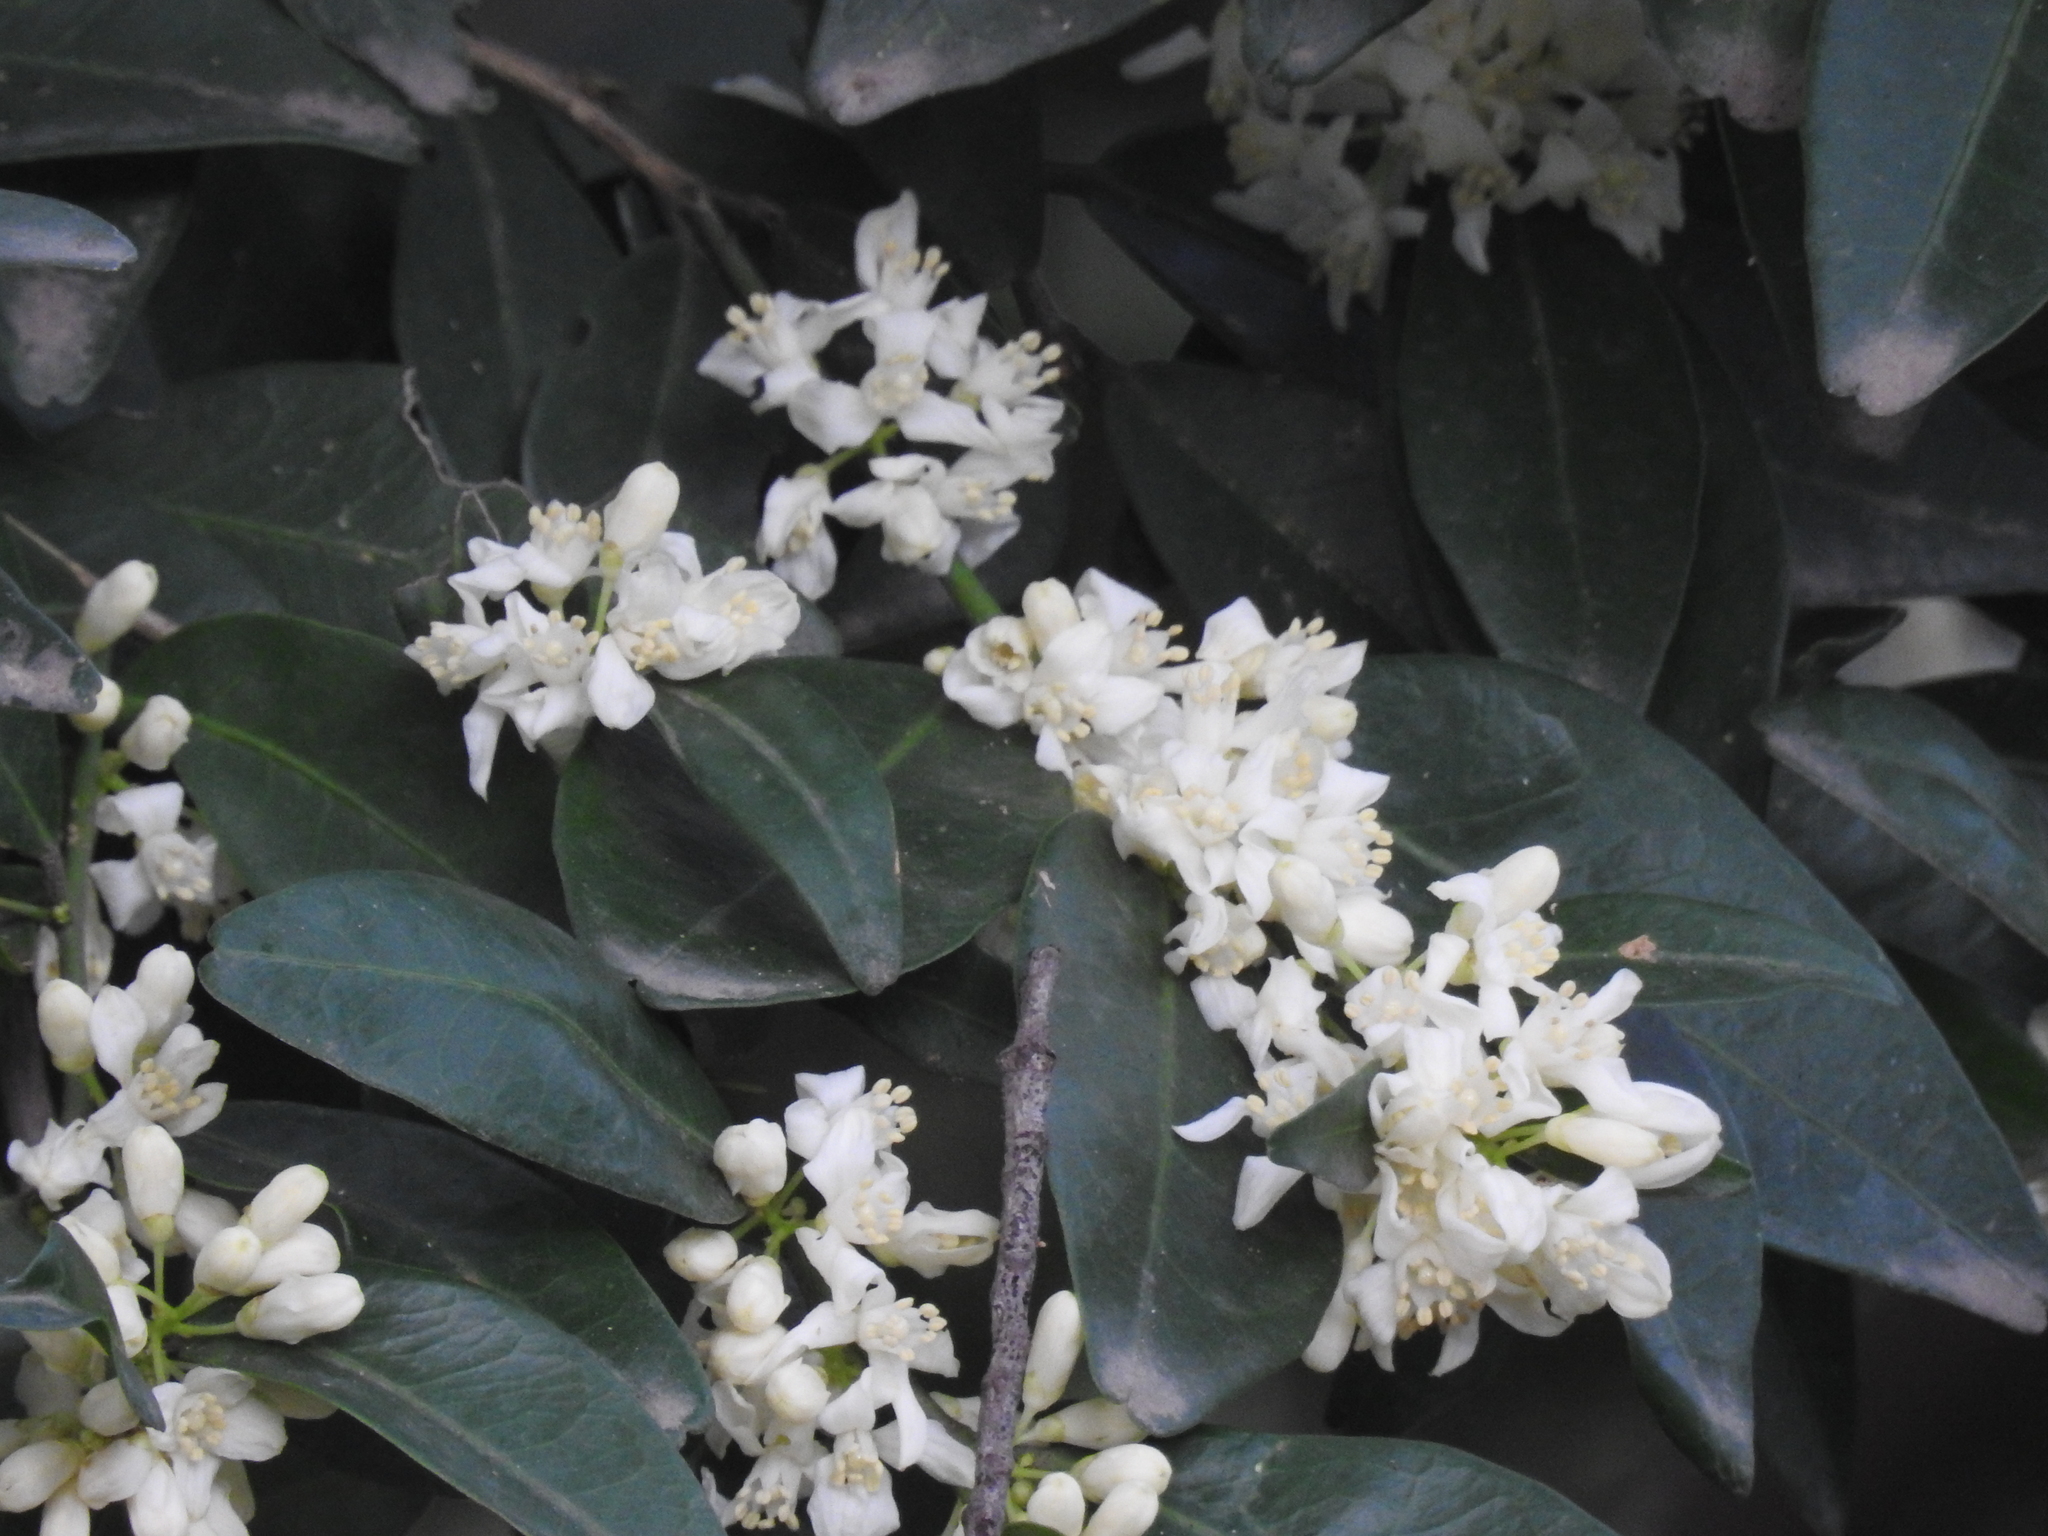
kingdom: Plantae
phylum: Tracheophyta
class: Magnoliopsida
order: Sapindales
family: Rutaceae
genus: Atalantia
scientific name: Atalantia monophylla
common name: Indian-atalantia
